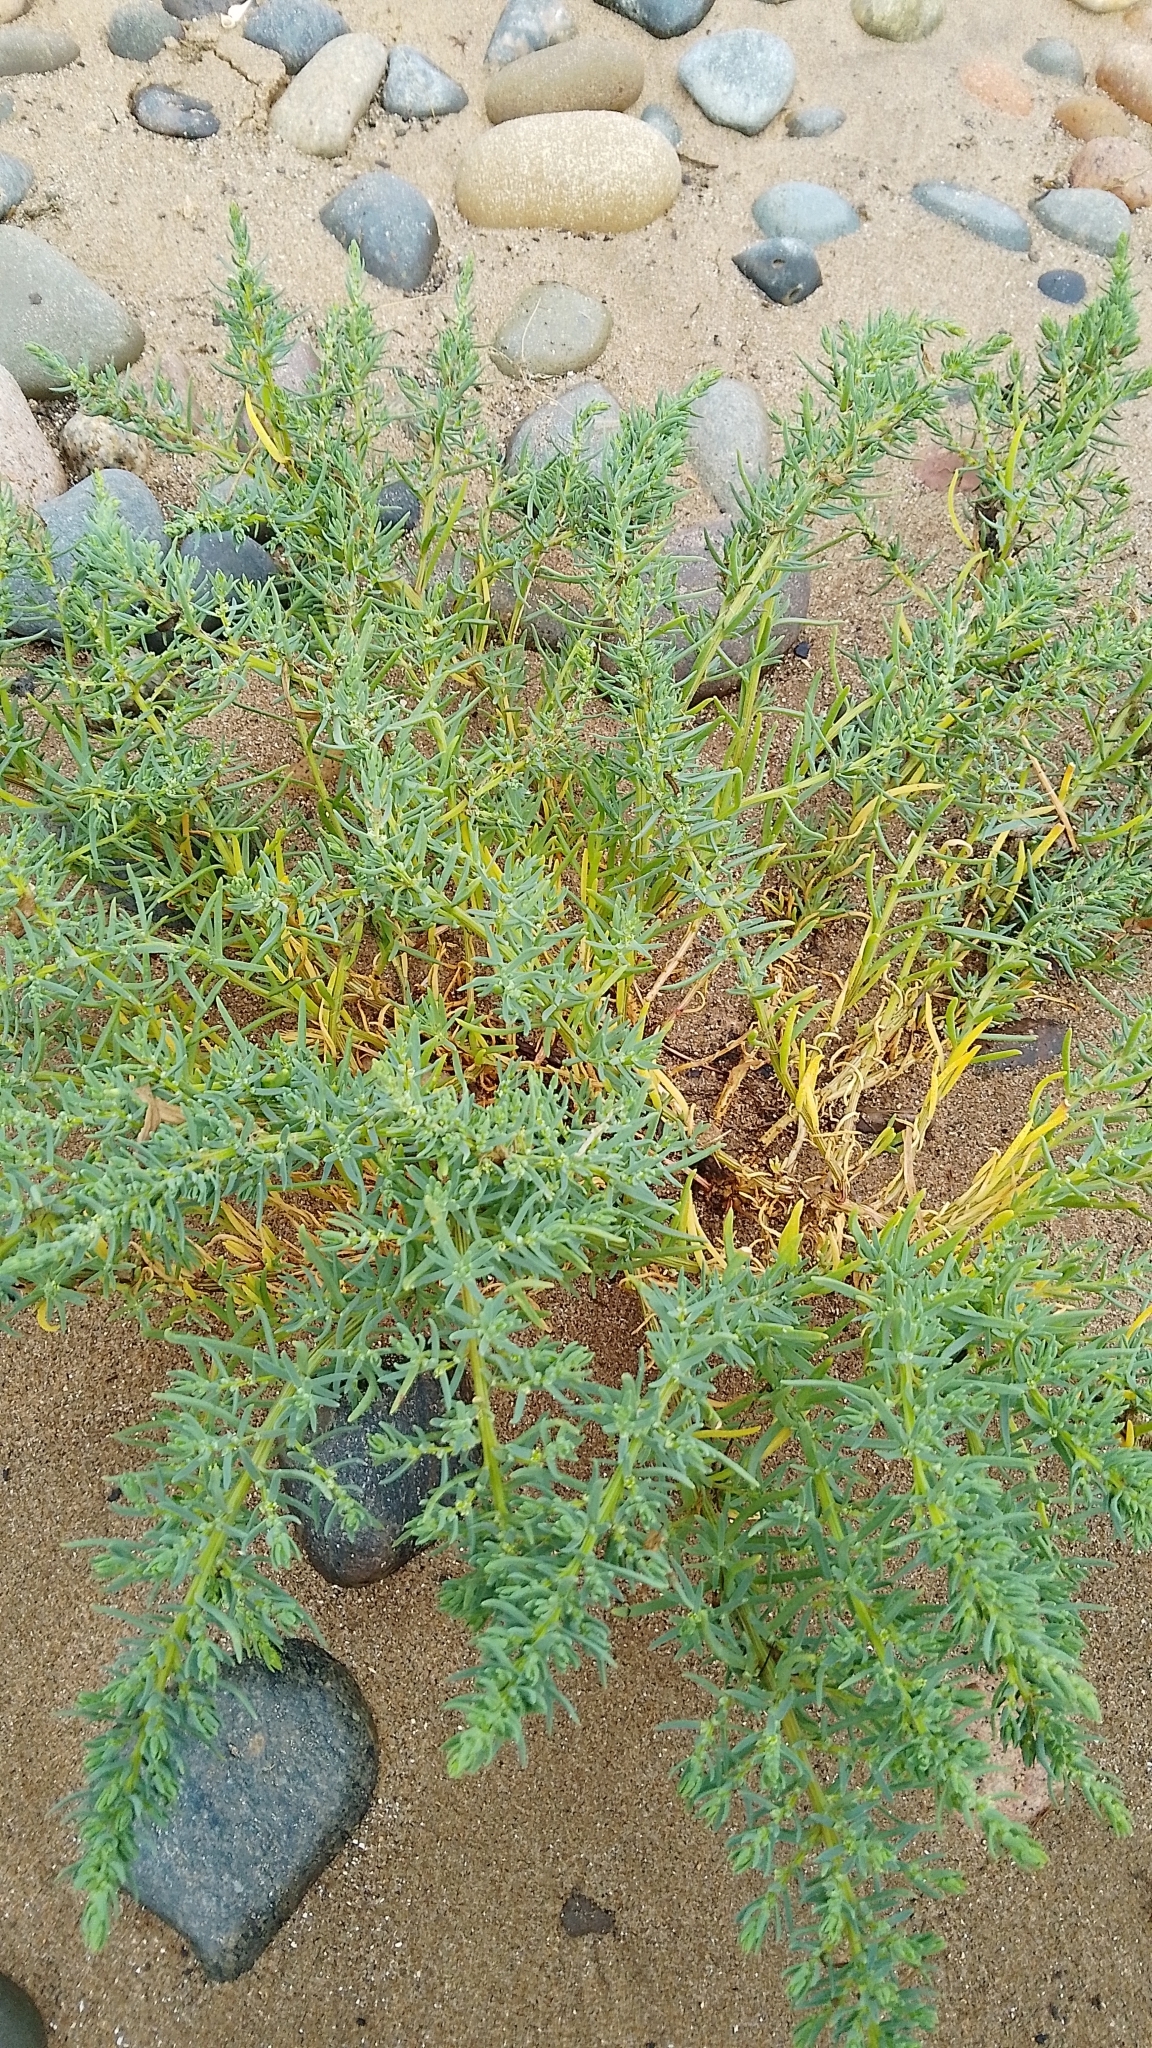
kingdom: Plantae
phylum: Tracheophyta
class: Magnoliopsida
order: Caryophyllales
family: Amaranthaceae
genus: Suaeda
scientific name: Suaeda maritima
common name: Annual sea-blite
